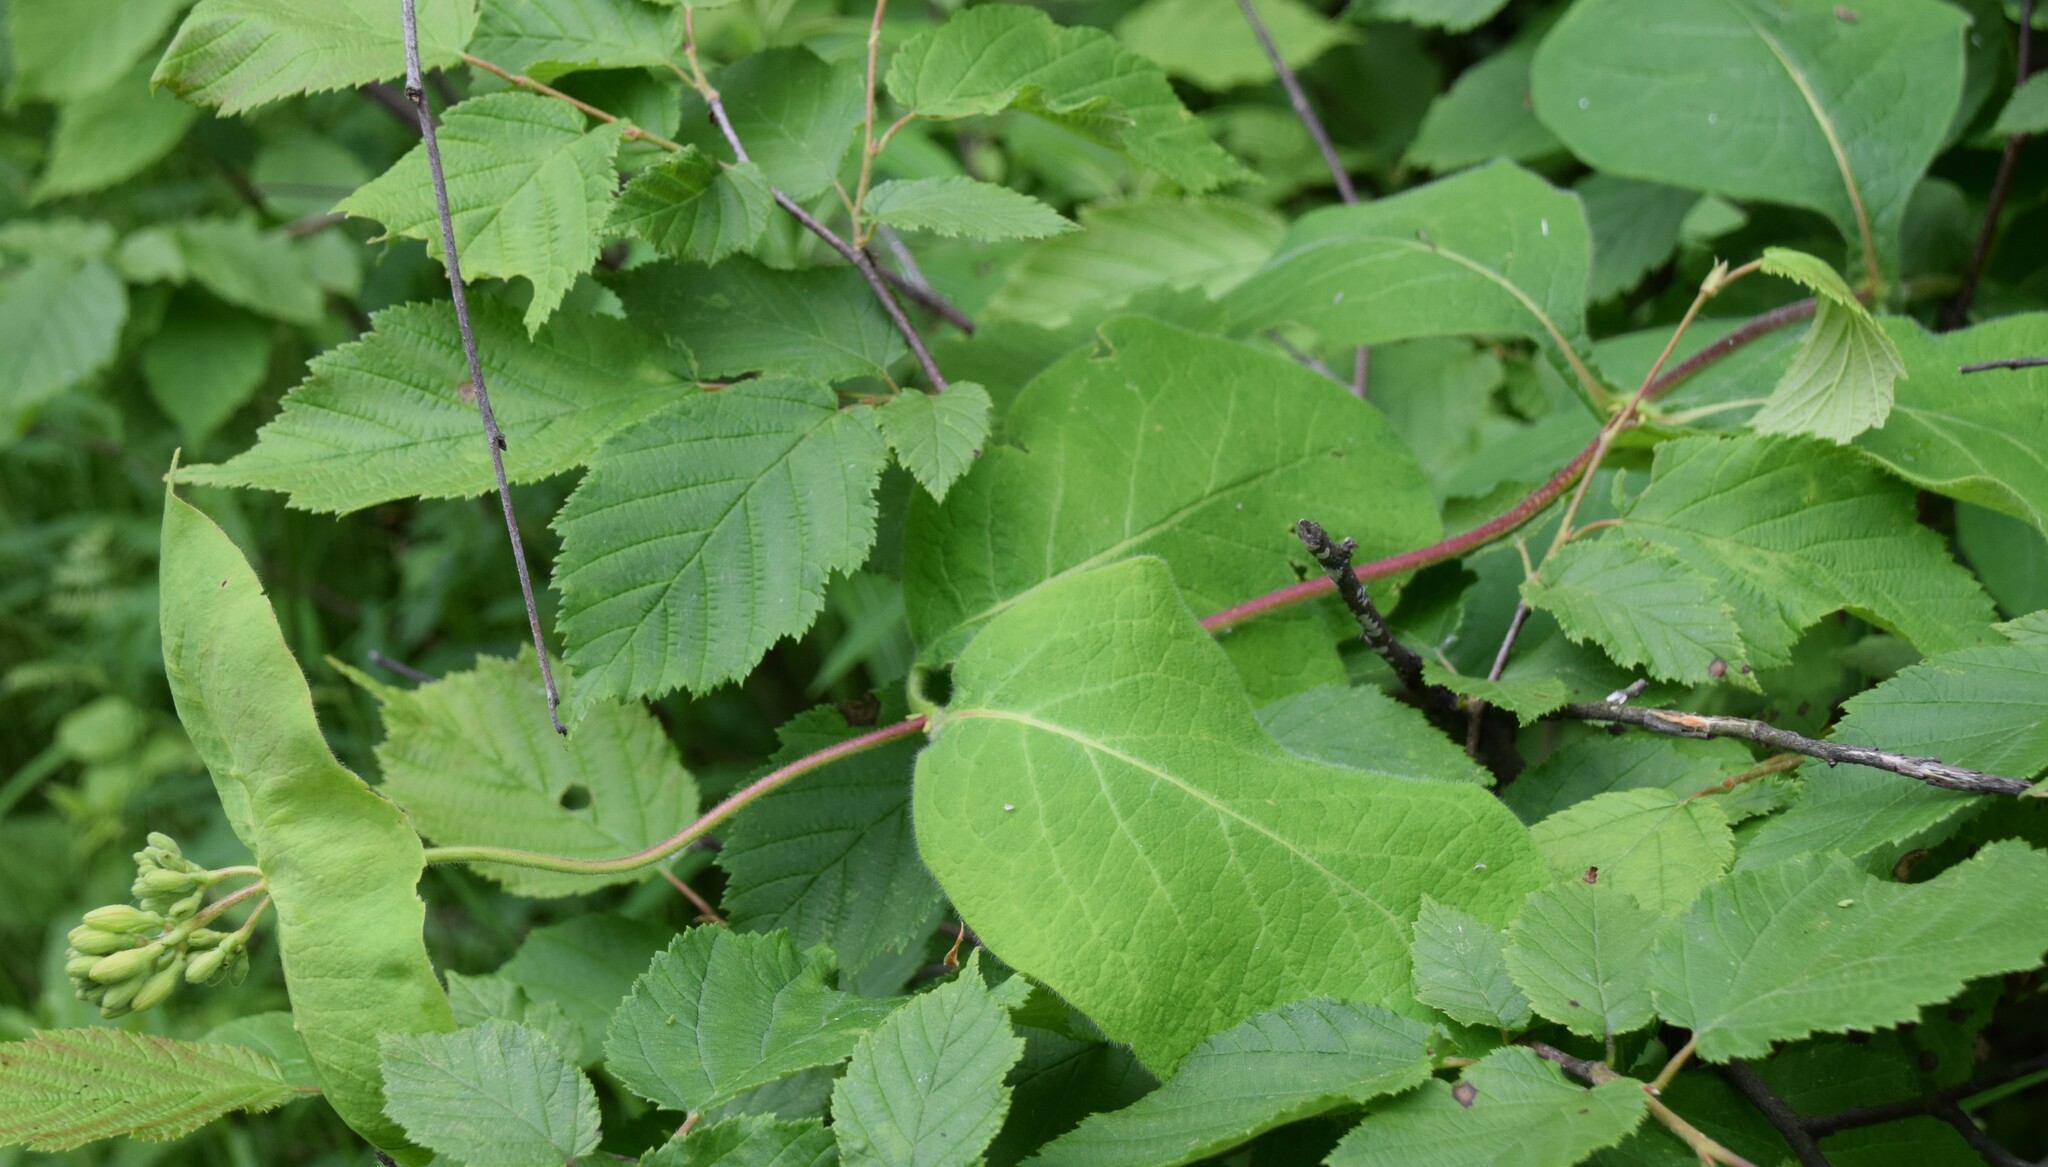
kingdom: Plantae
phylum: Tracheophyta
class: Magnoliopsida
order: Dipsacales
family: Caprifoliaceae
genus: Lonicera
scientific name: Lonicera hirsuta
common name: Hairy honeysuckle
